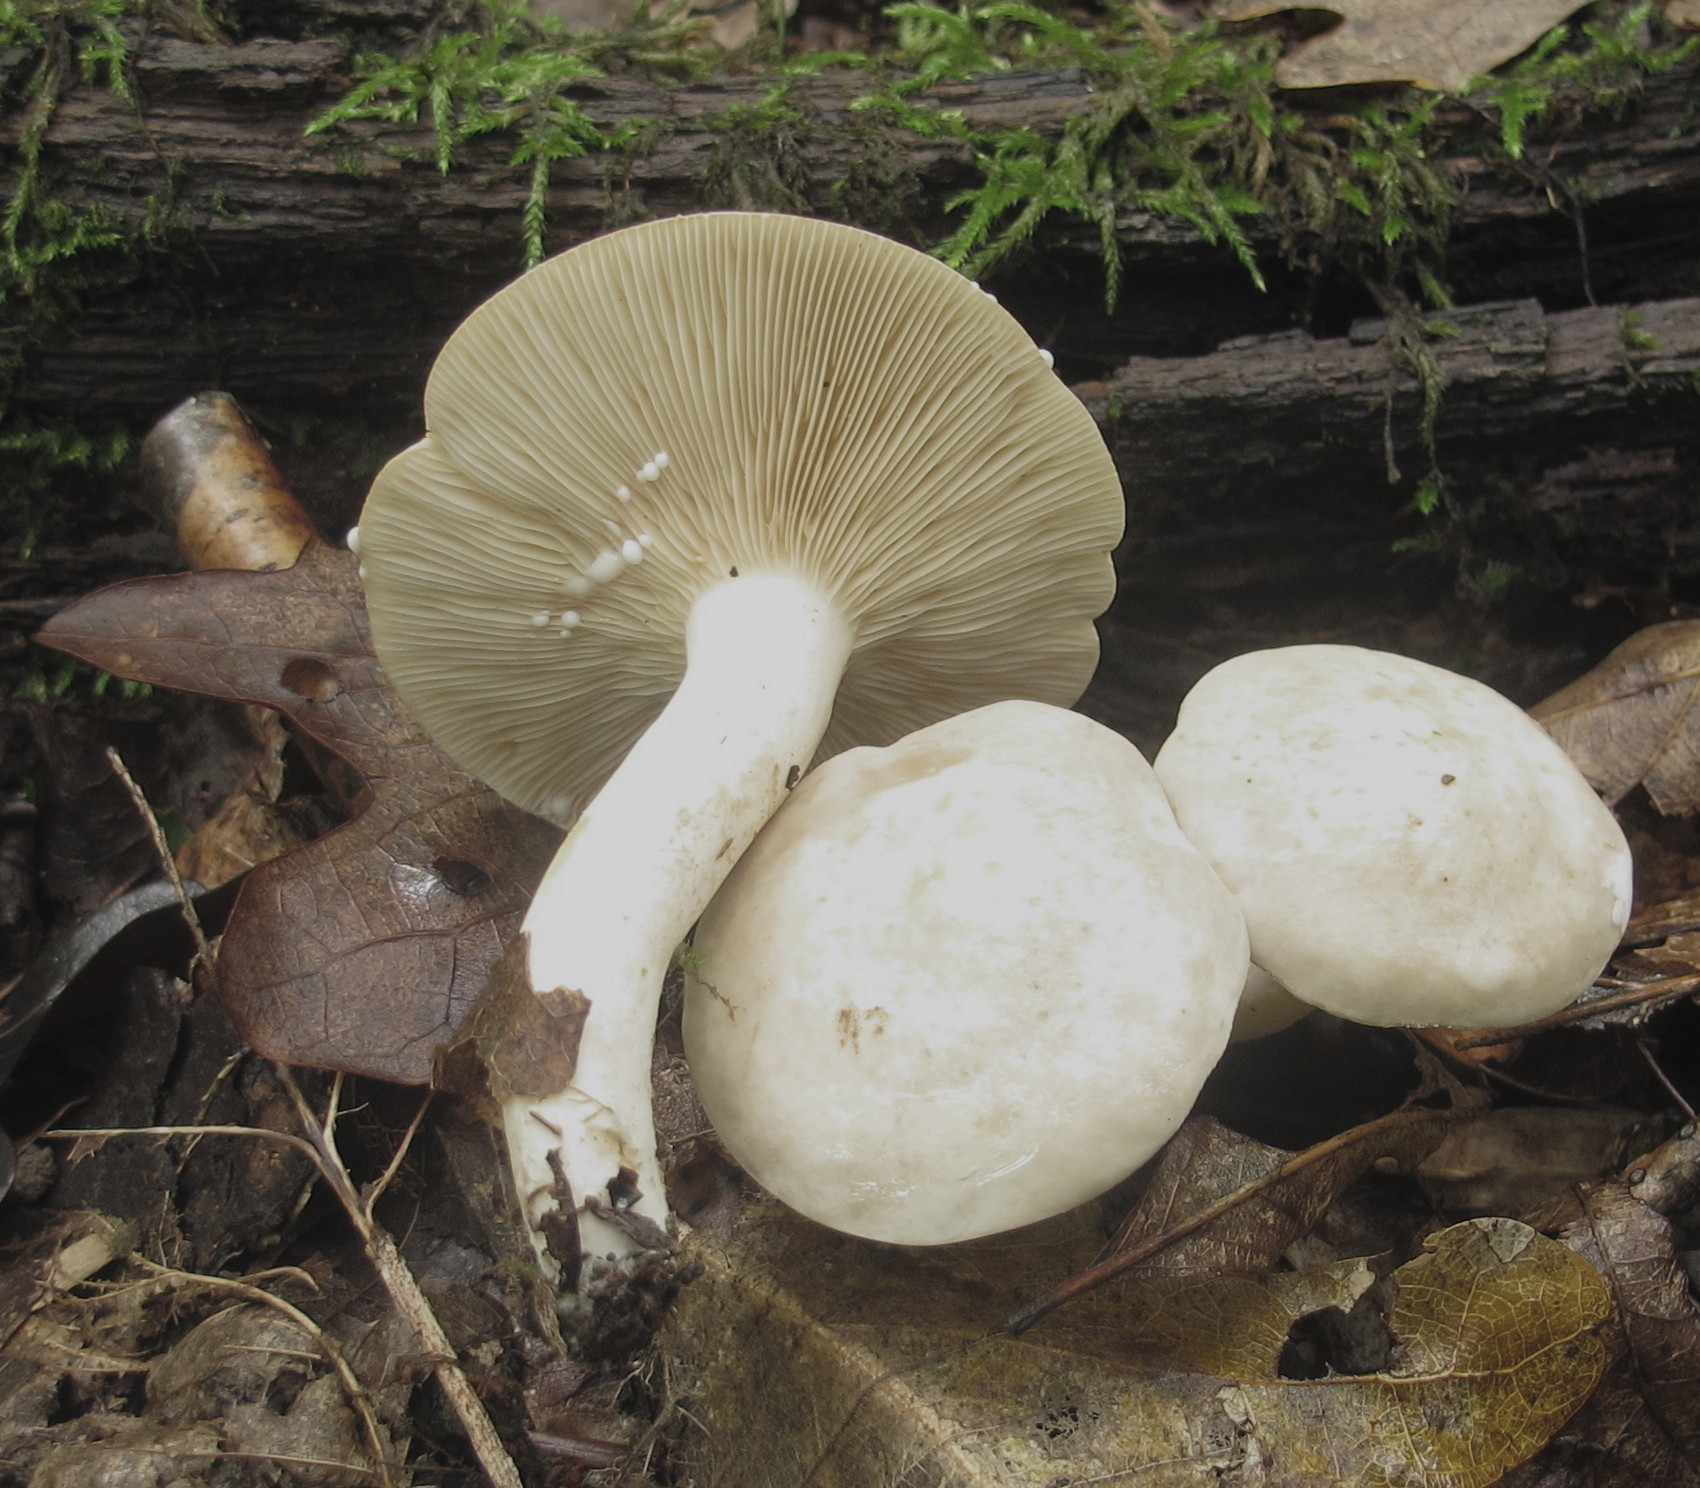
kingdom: Fungi
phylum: Basidiomycota
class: Agaricomycetes
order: Russulales
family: Russulaceae
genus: Lactarius
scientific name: Lactarius subvernalis
